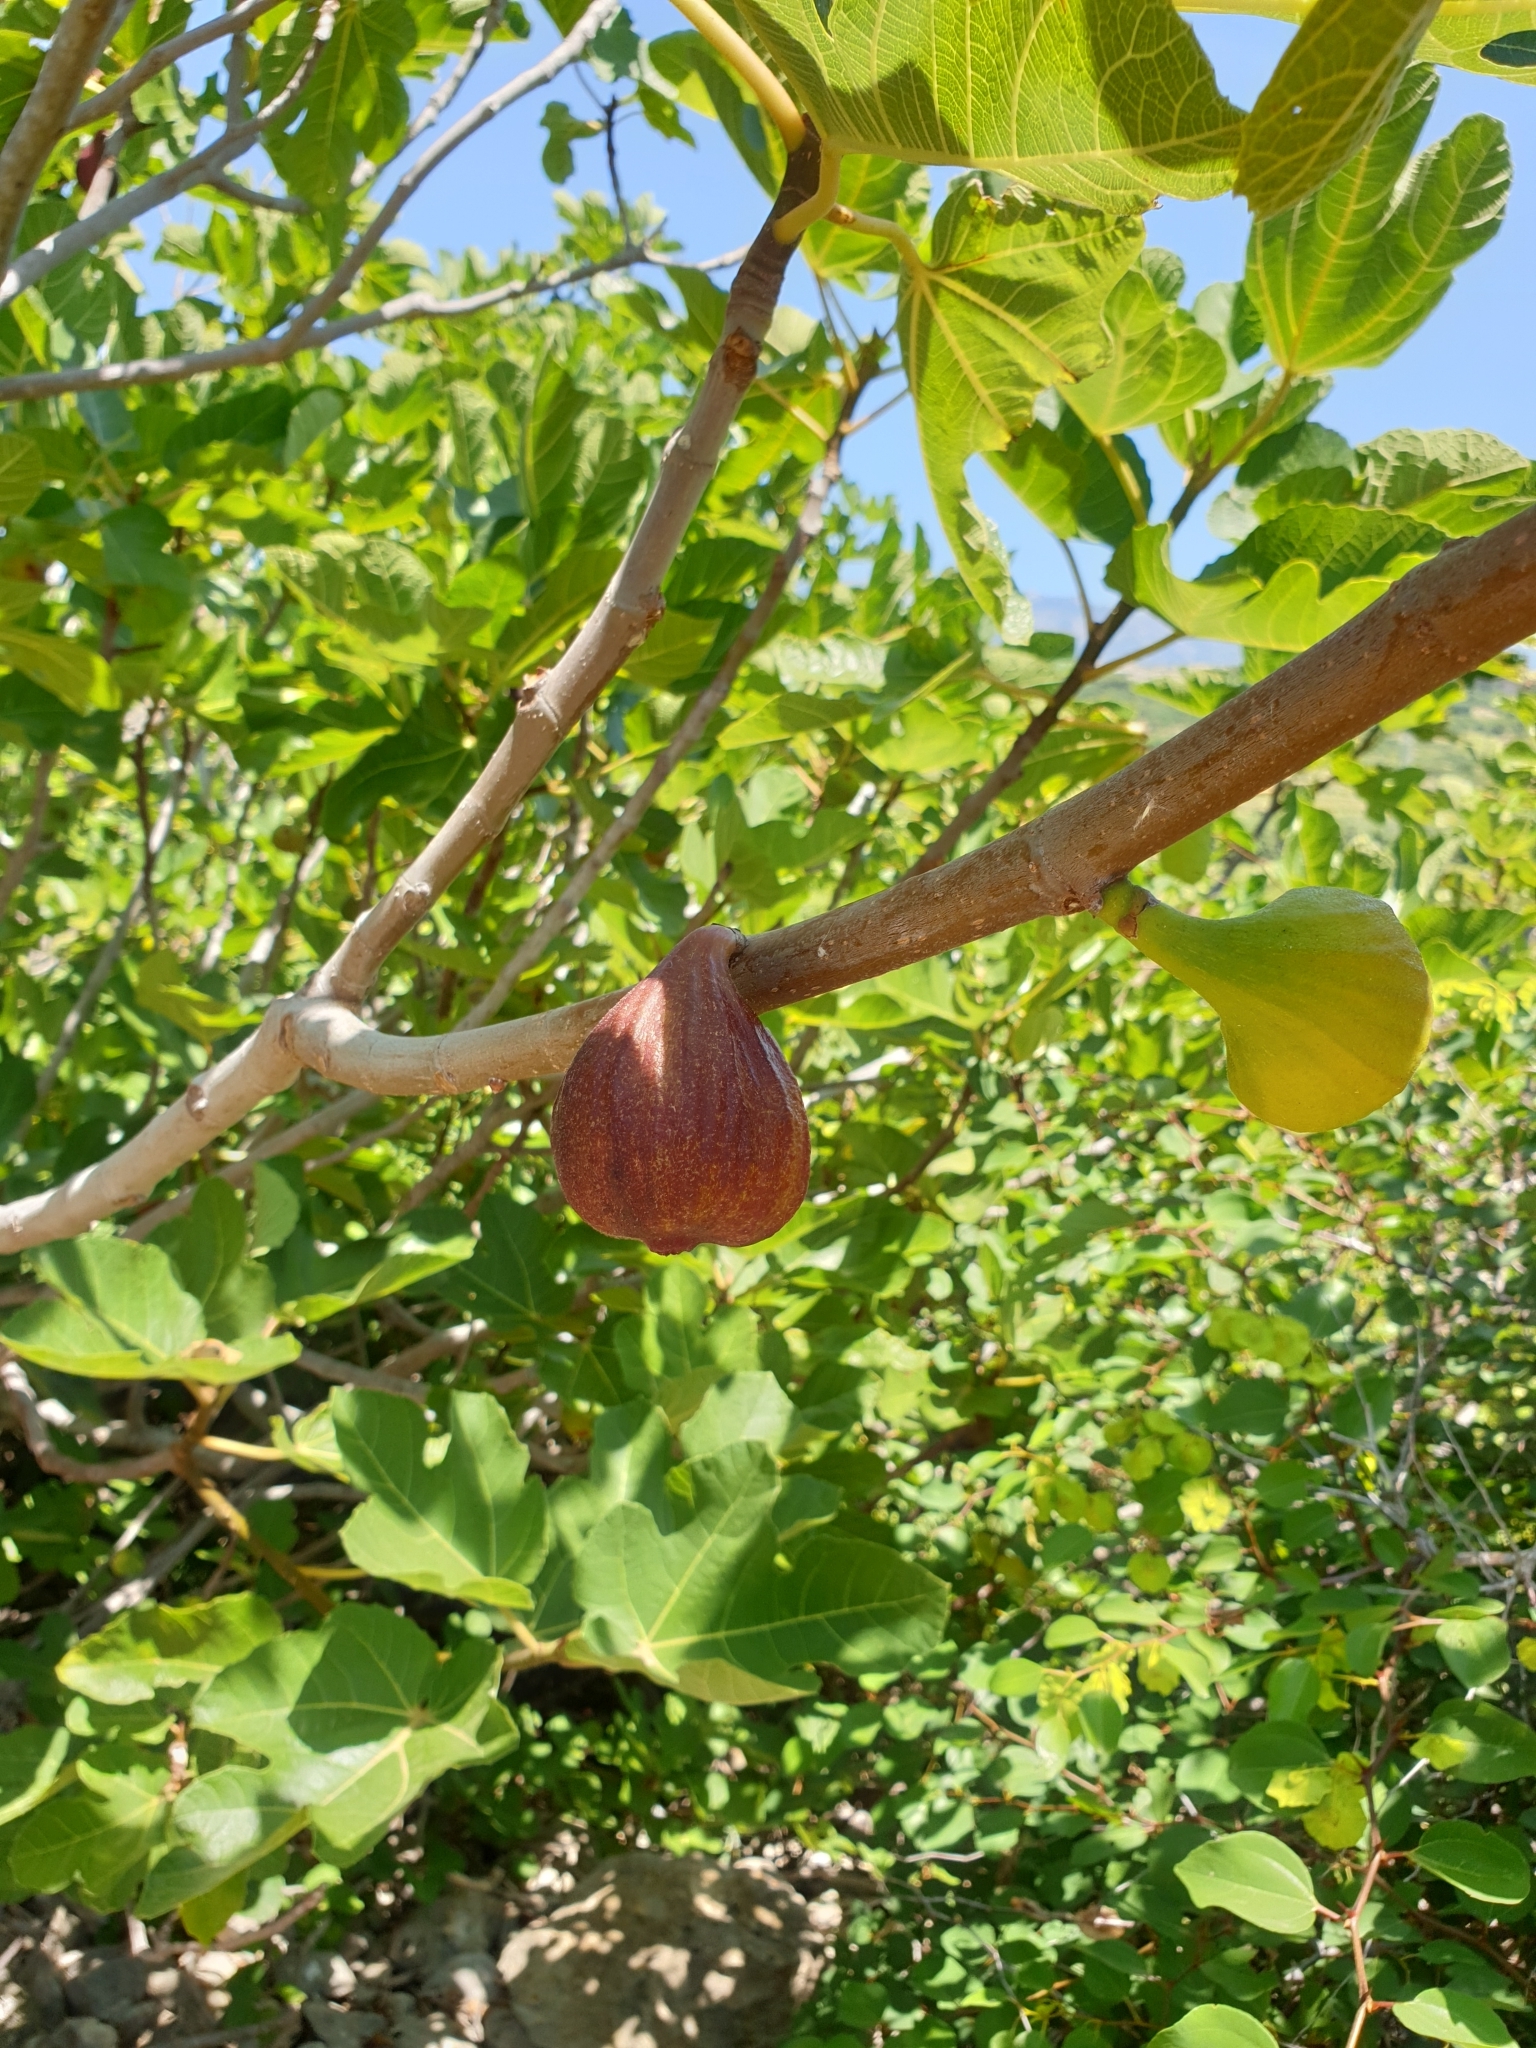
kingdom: Plantae
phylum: Tracheophyta
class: Magnoliopsida
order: Rosales
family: Moraceae
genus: Ficus
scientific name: Ficus carica
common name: Fig
